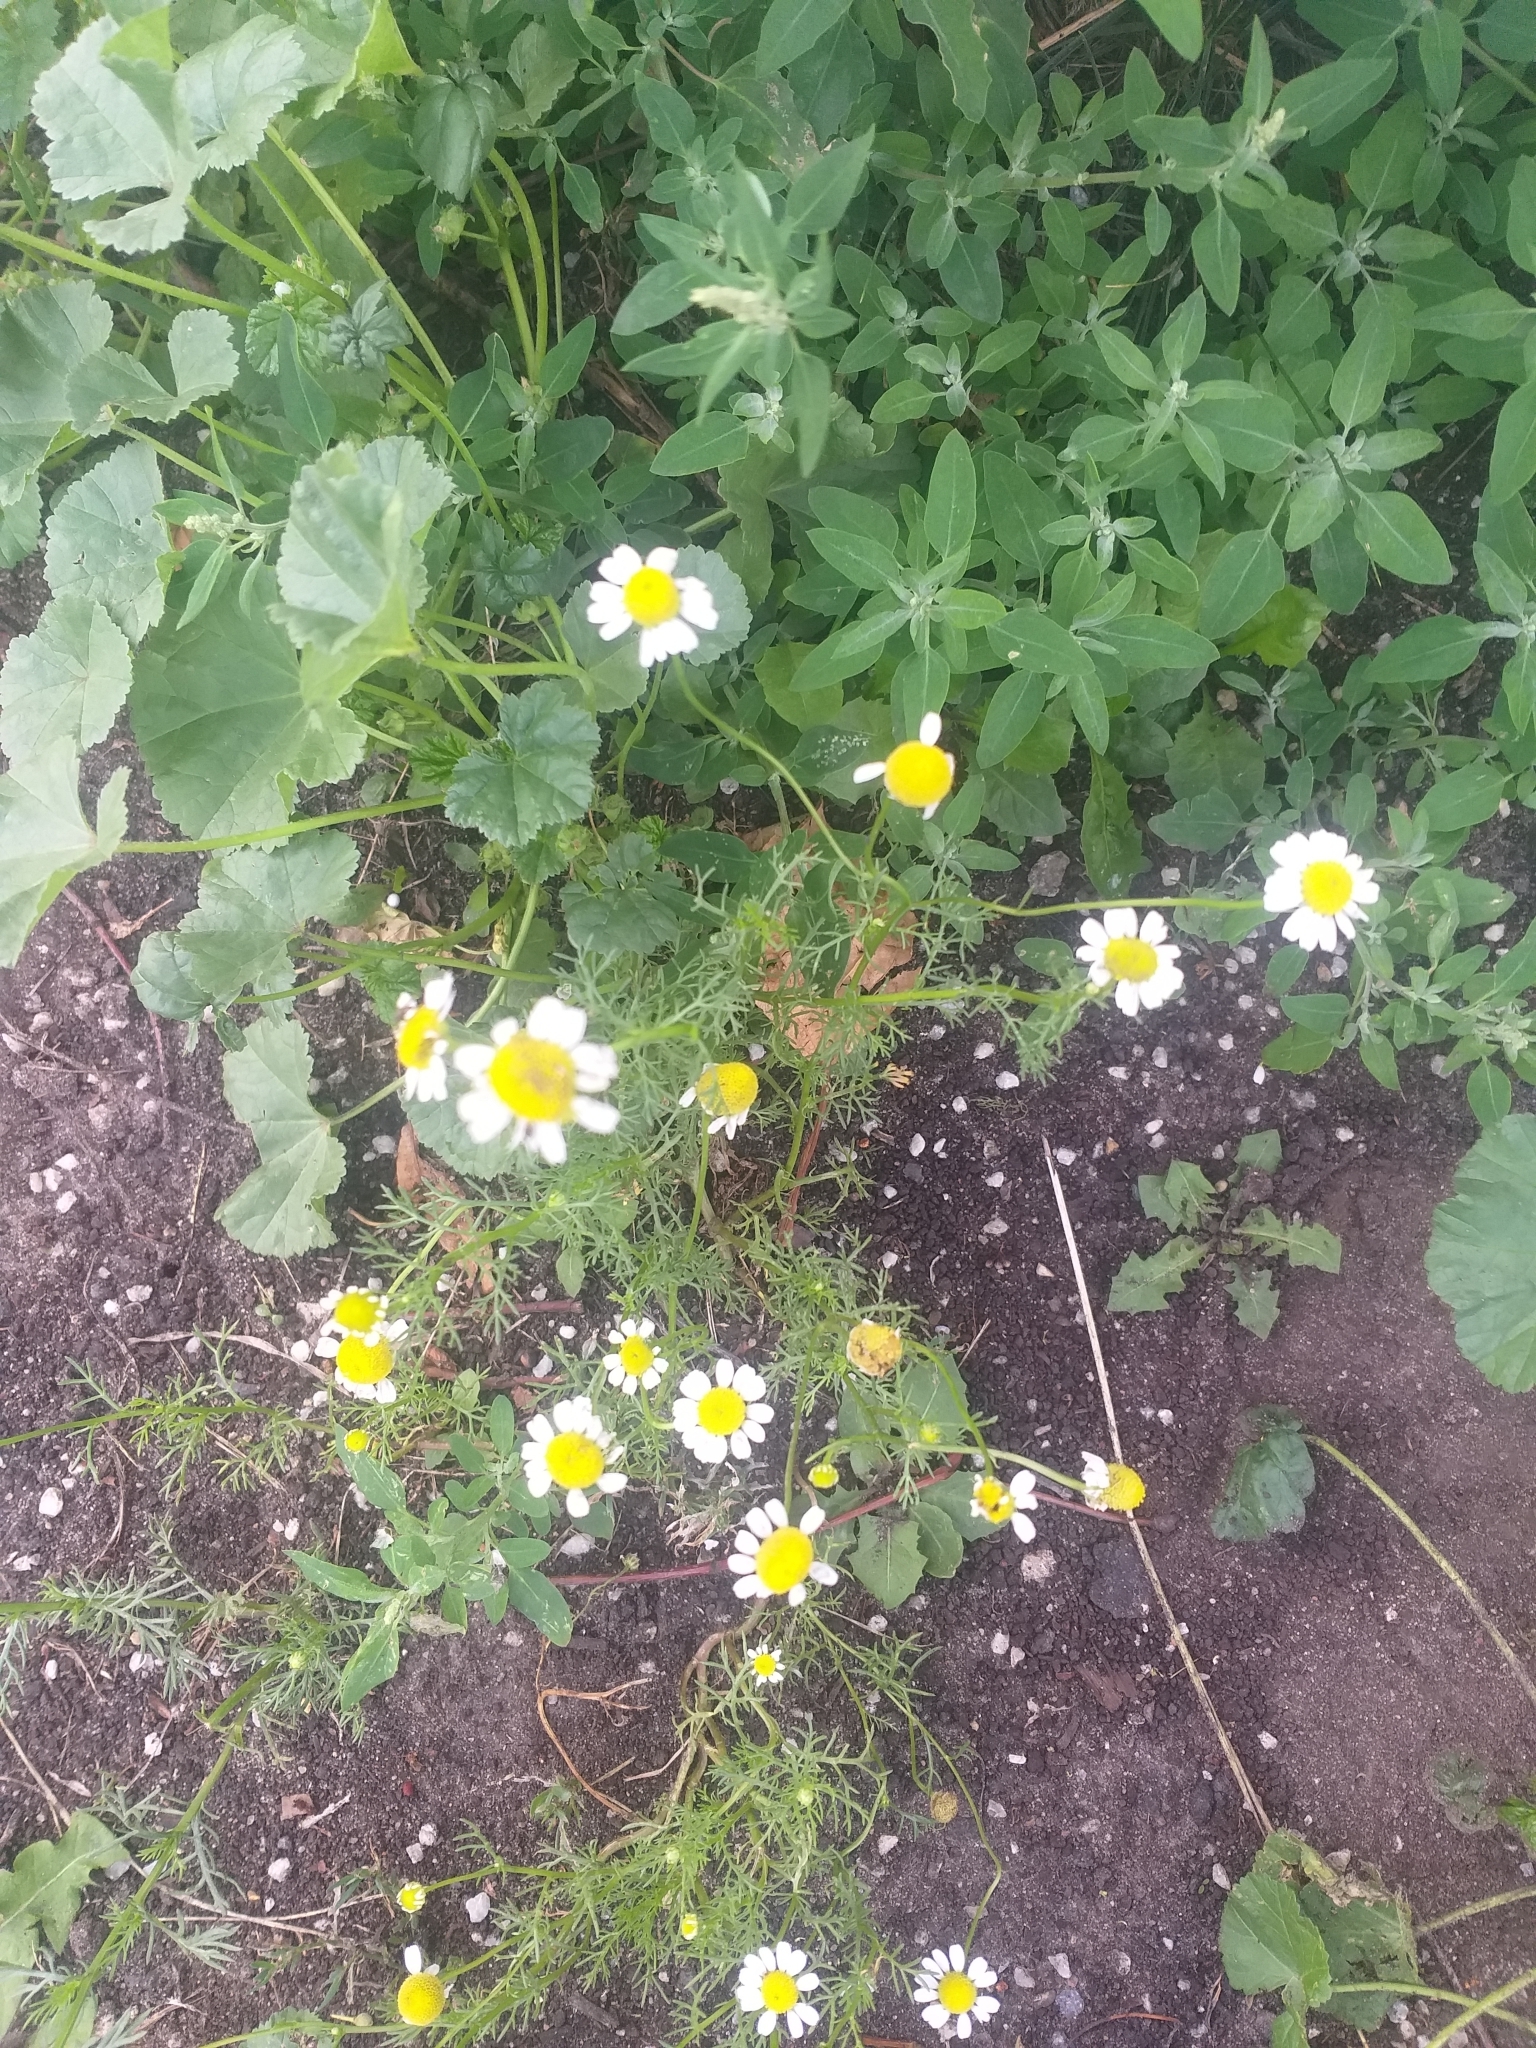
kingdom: Plantae
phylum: Tracheophyta
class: Magnoliopsida
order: Asterales
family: Asteraceae
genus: Matricaria
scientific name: Matricaria chamomilla
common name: Scented mayweed
